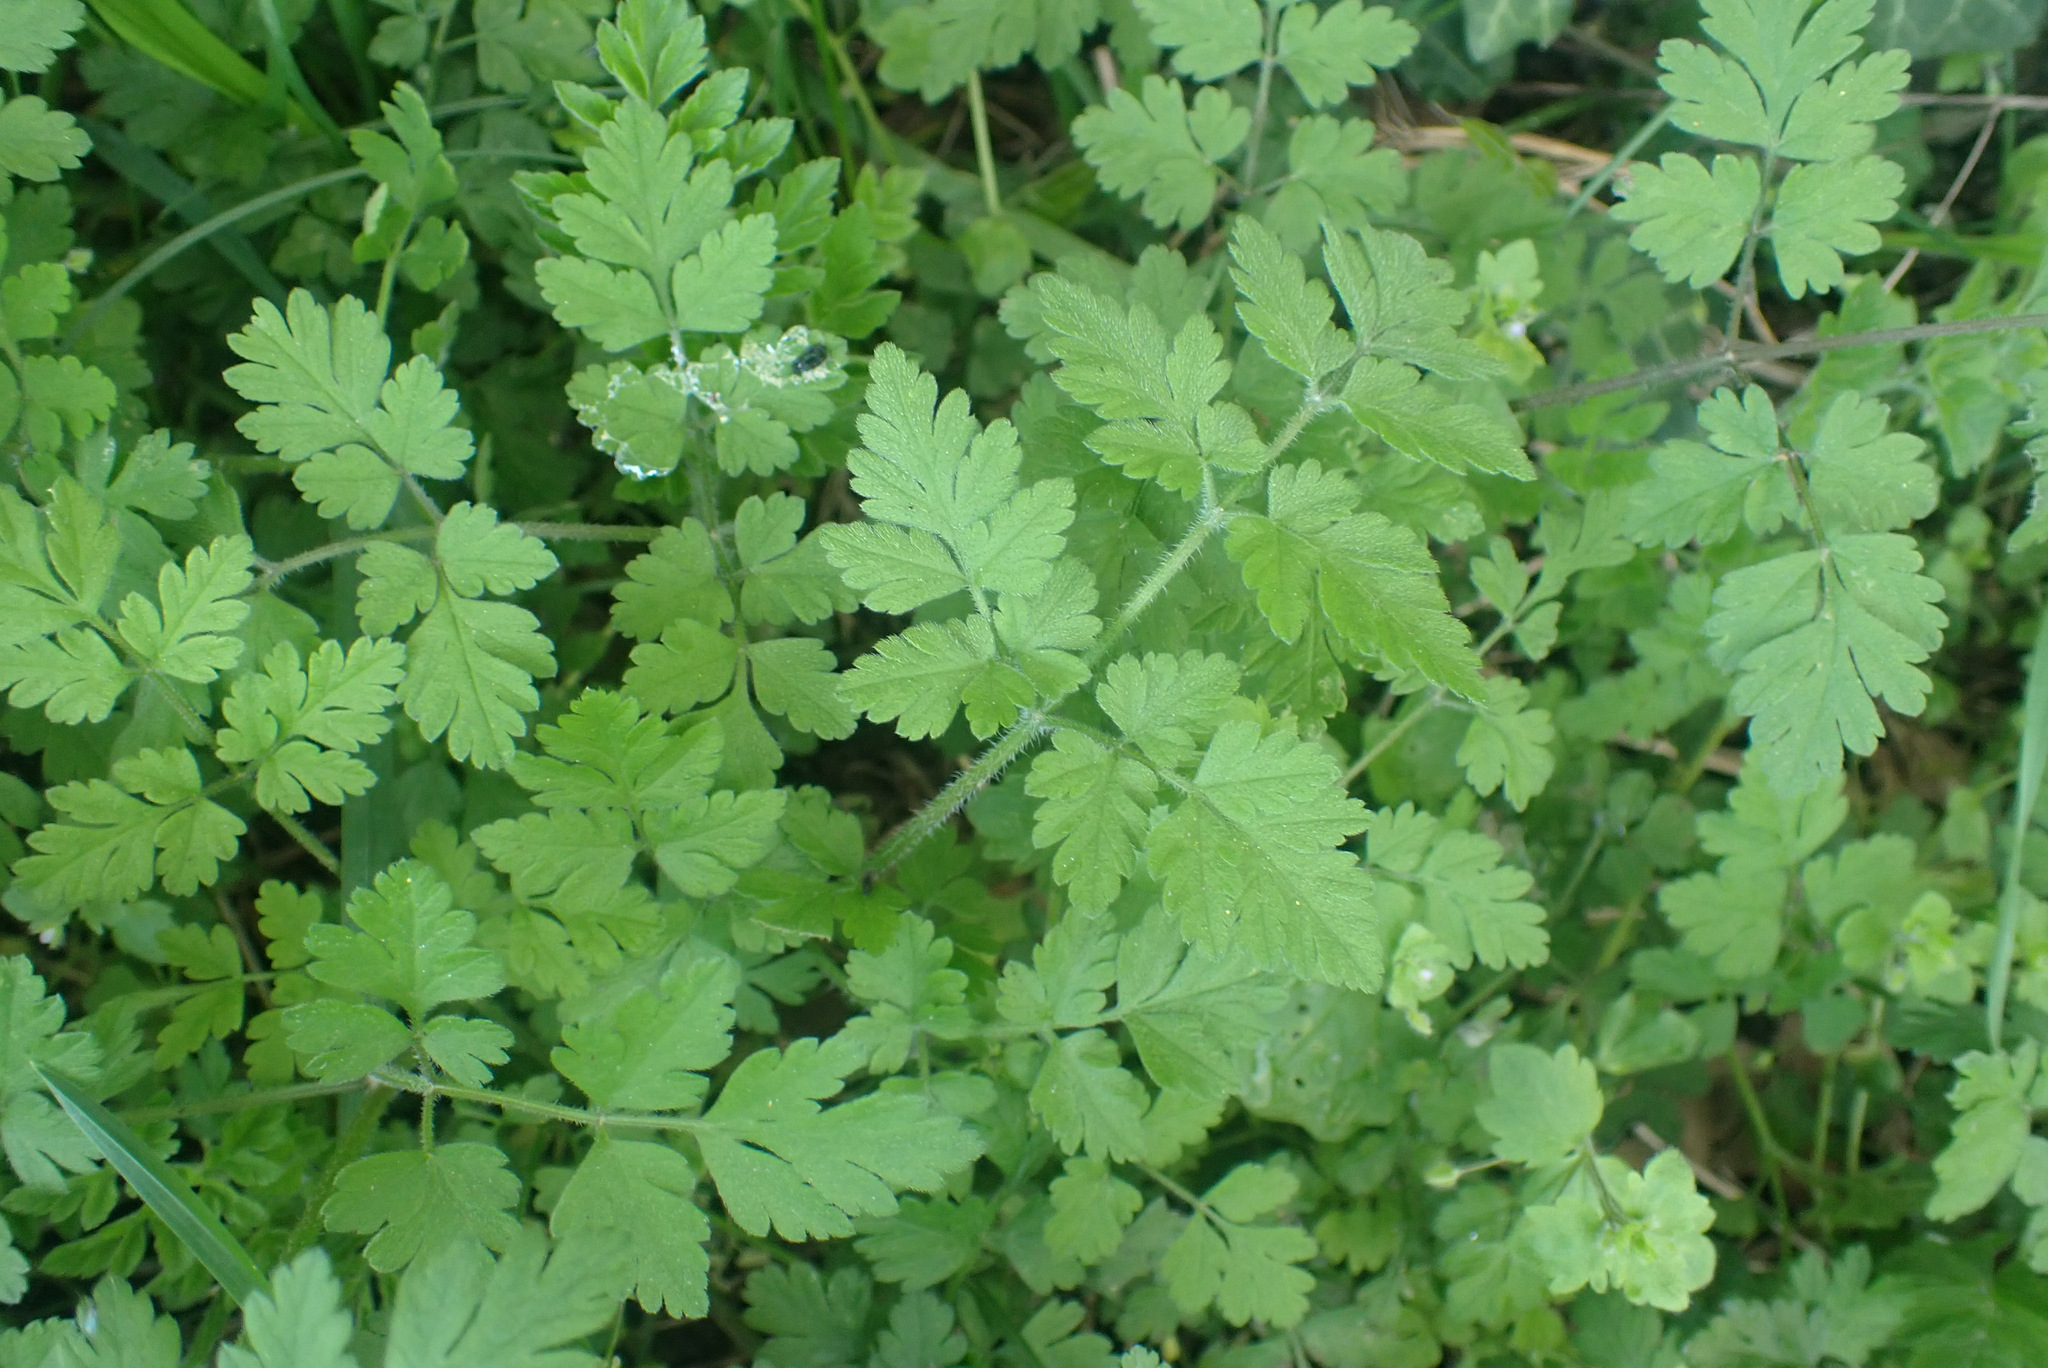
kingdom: Plantae
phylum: Tracheophyta
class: Magnoliopsida
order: Apiales
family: Apiaceae
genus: Chaerophyllum
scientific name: Chaerophyllum temulum
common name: Rough chervil
